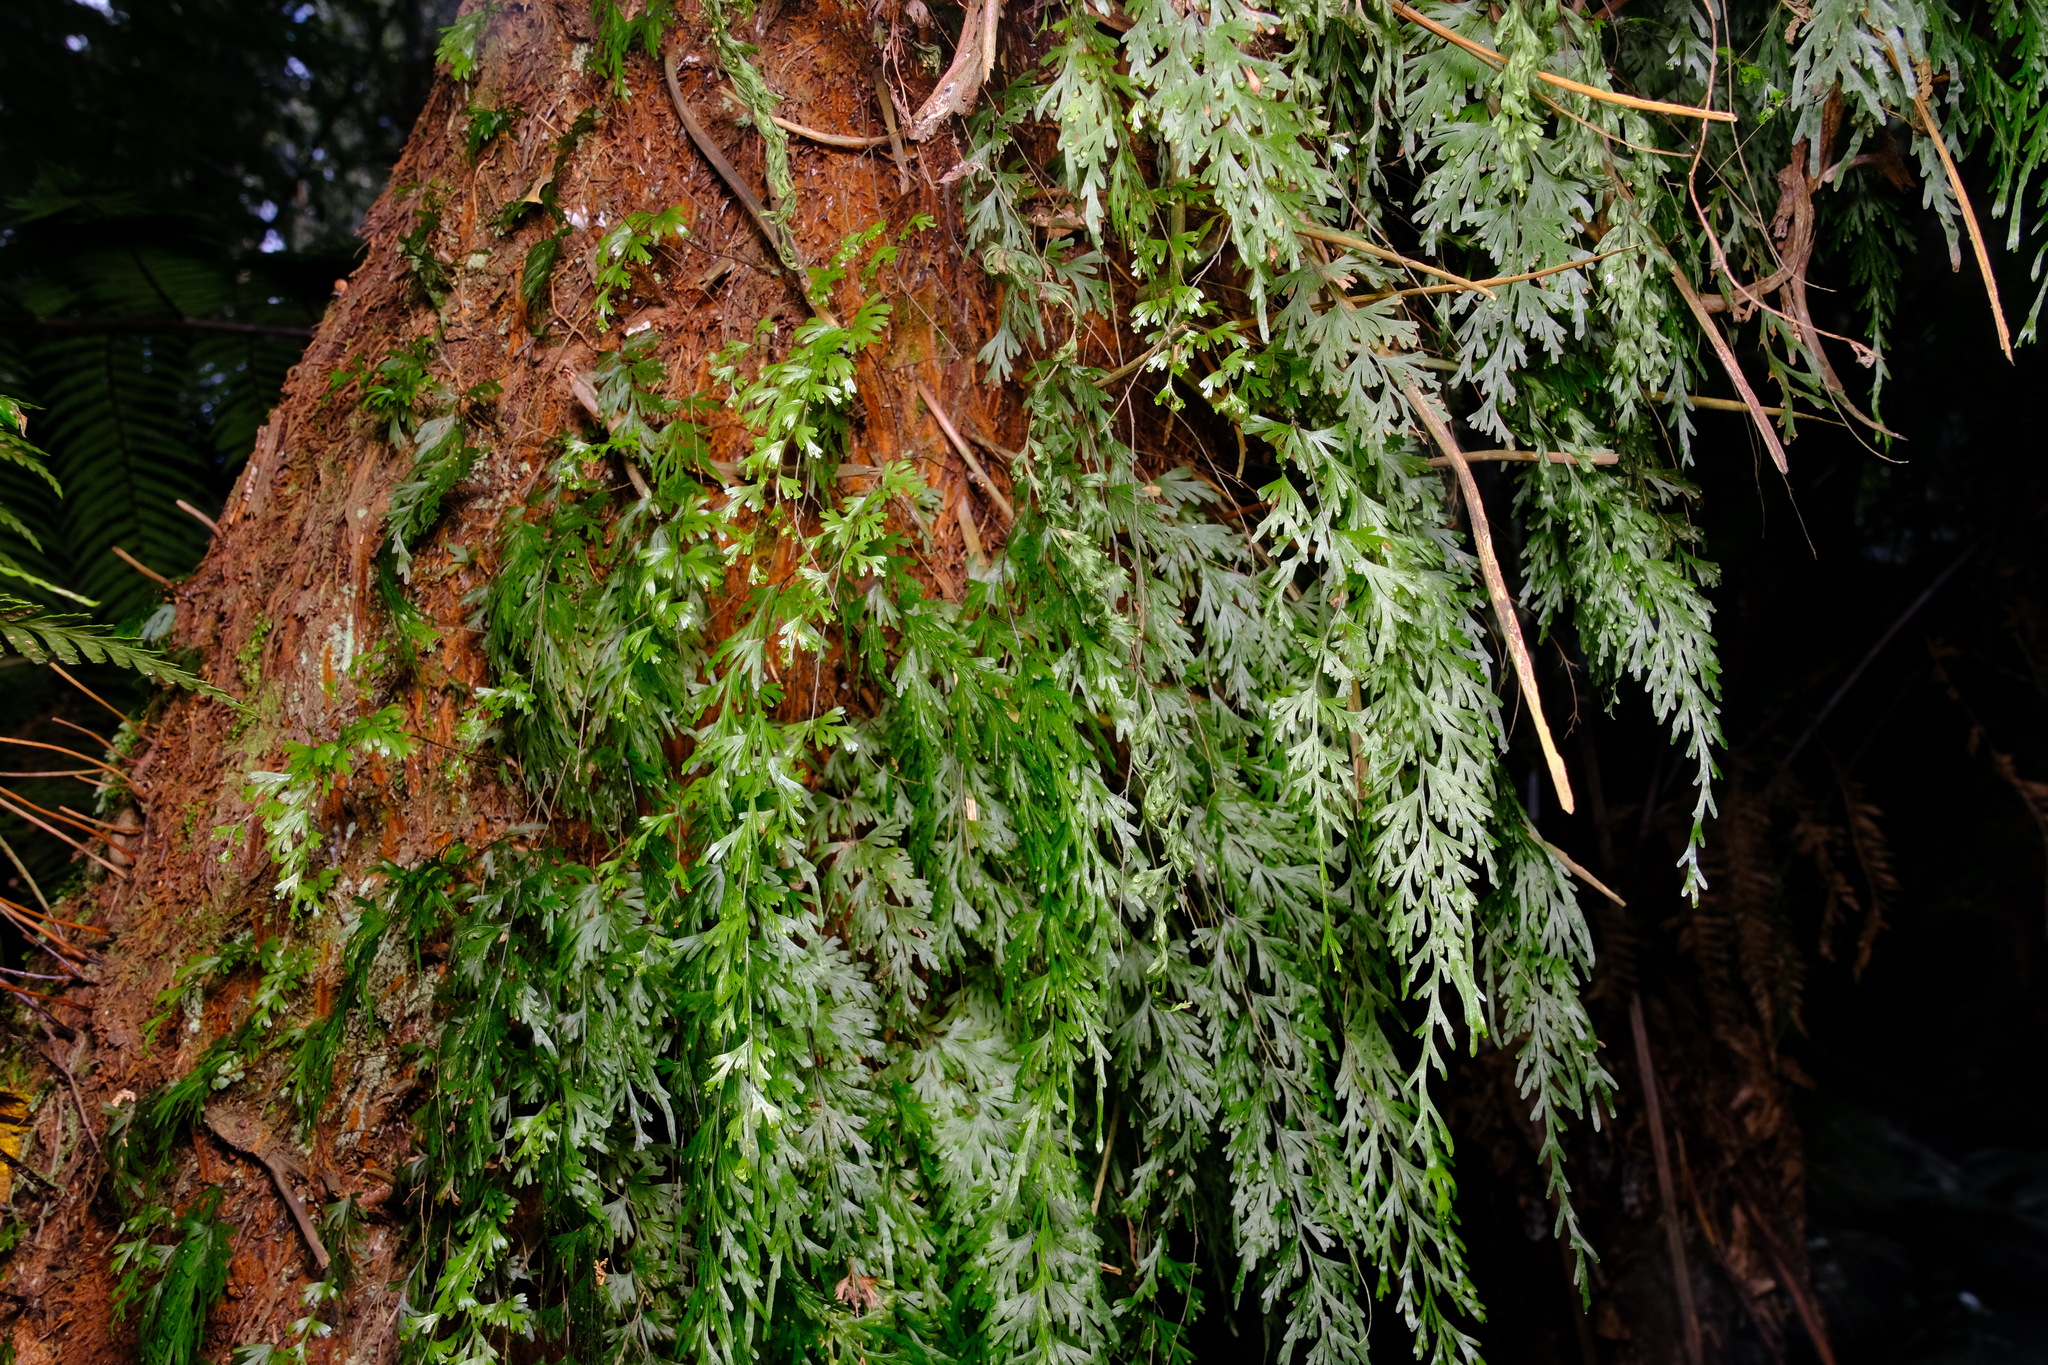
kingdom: Plantae
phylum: Tracheophyta
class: Polypodiopsida
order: Hymenophyllales
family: Hymenophyllaceae
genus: Hymenophyllum
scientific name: Hymenophyllum flabellatum
